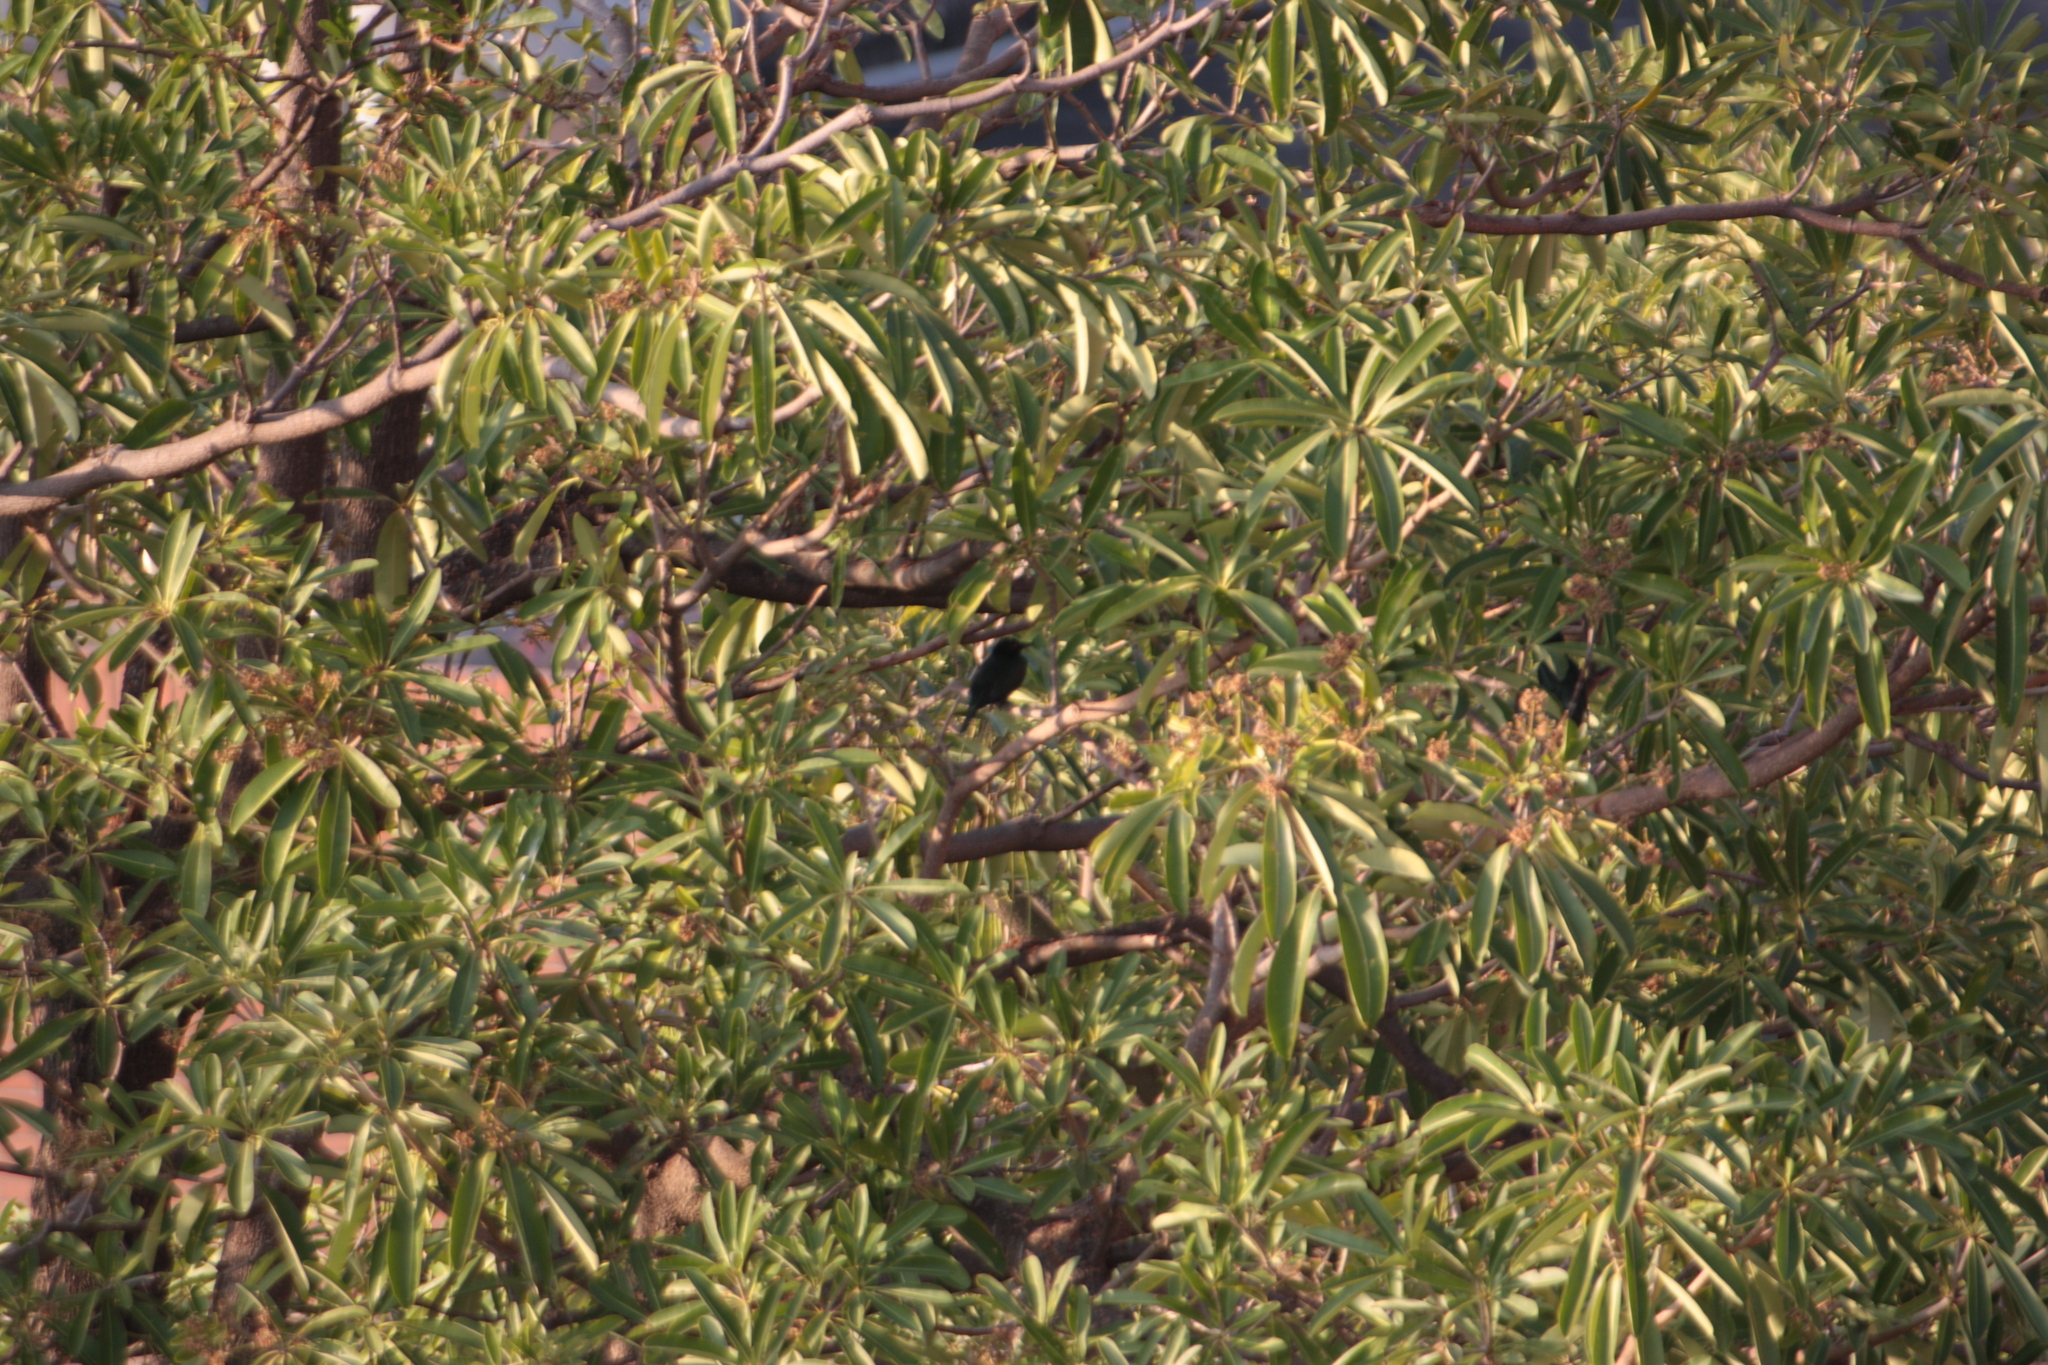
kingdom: Animalia
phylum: Chordata
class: Aves
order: Passeriformes
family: Sturnidae
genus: Aplonis
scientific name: Aplonis panayensis
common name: Asian glossy starling
